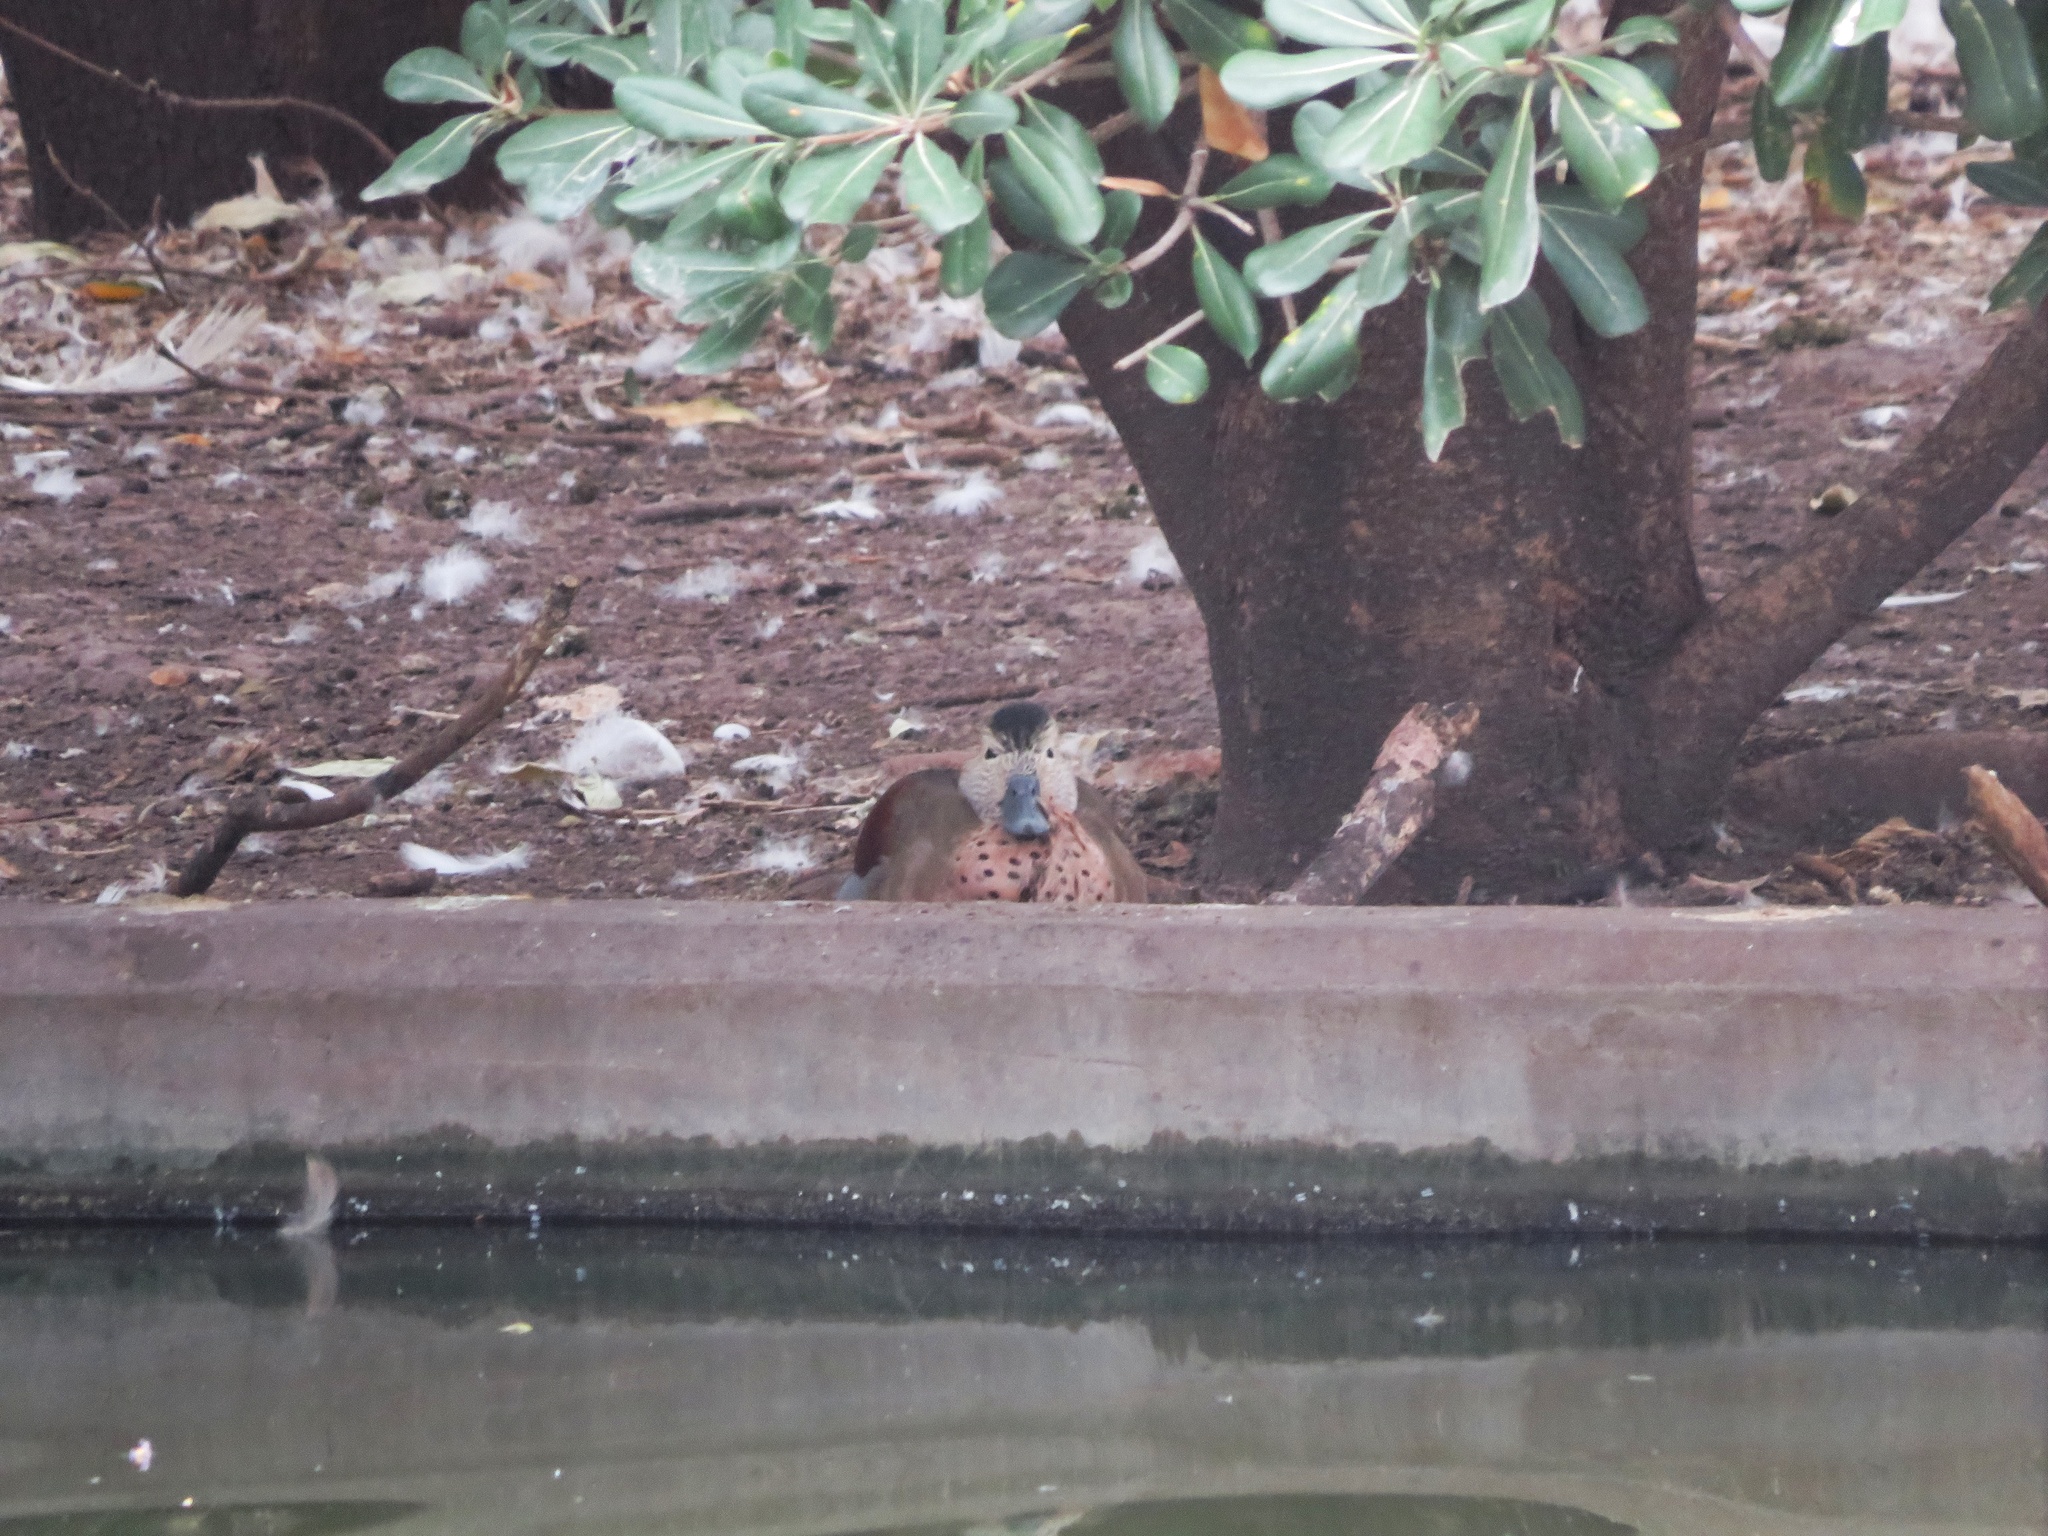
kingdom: Animalia
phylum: Chordata
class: Aves
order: Anseriformes
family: Anatidae
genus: Callonetta
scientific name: Callonetta leucophrys
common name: Ringed teal
